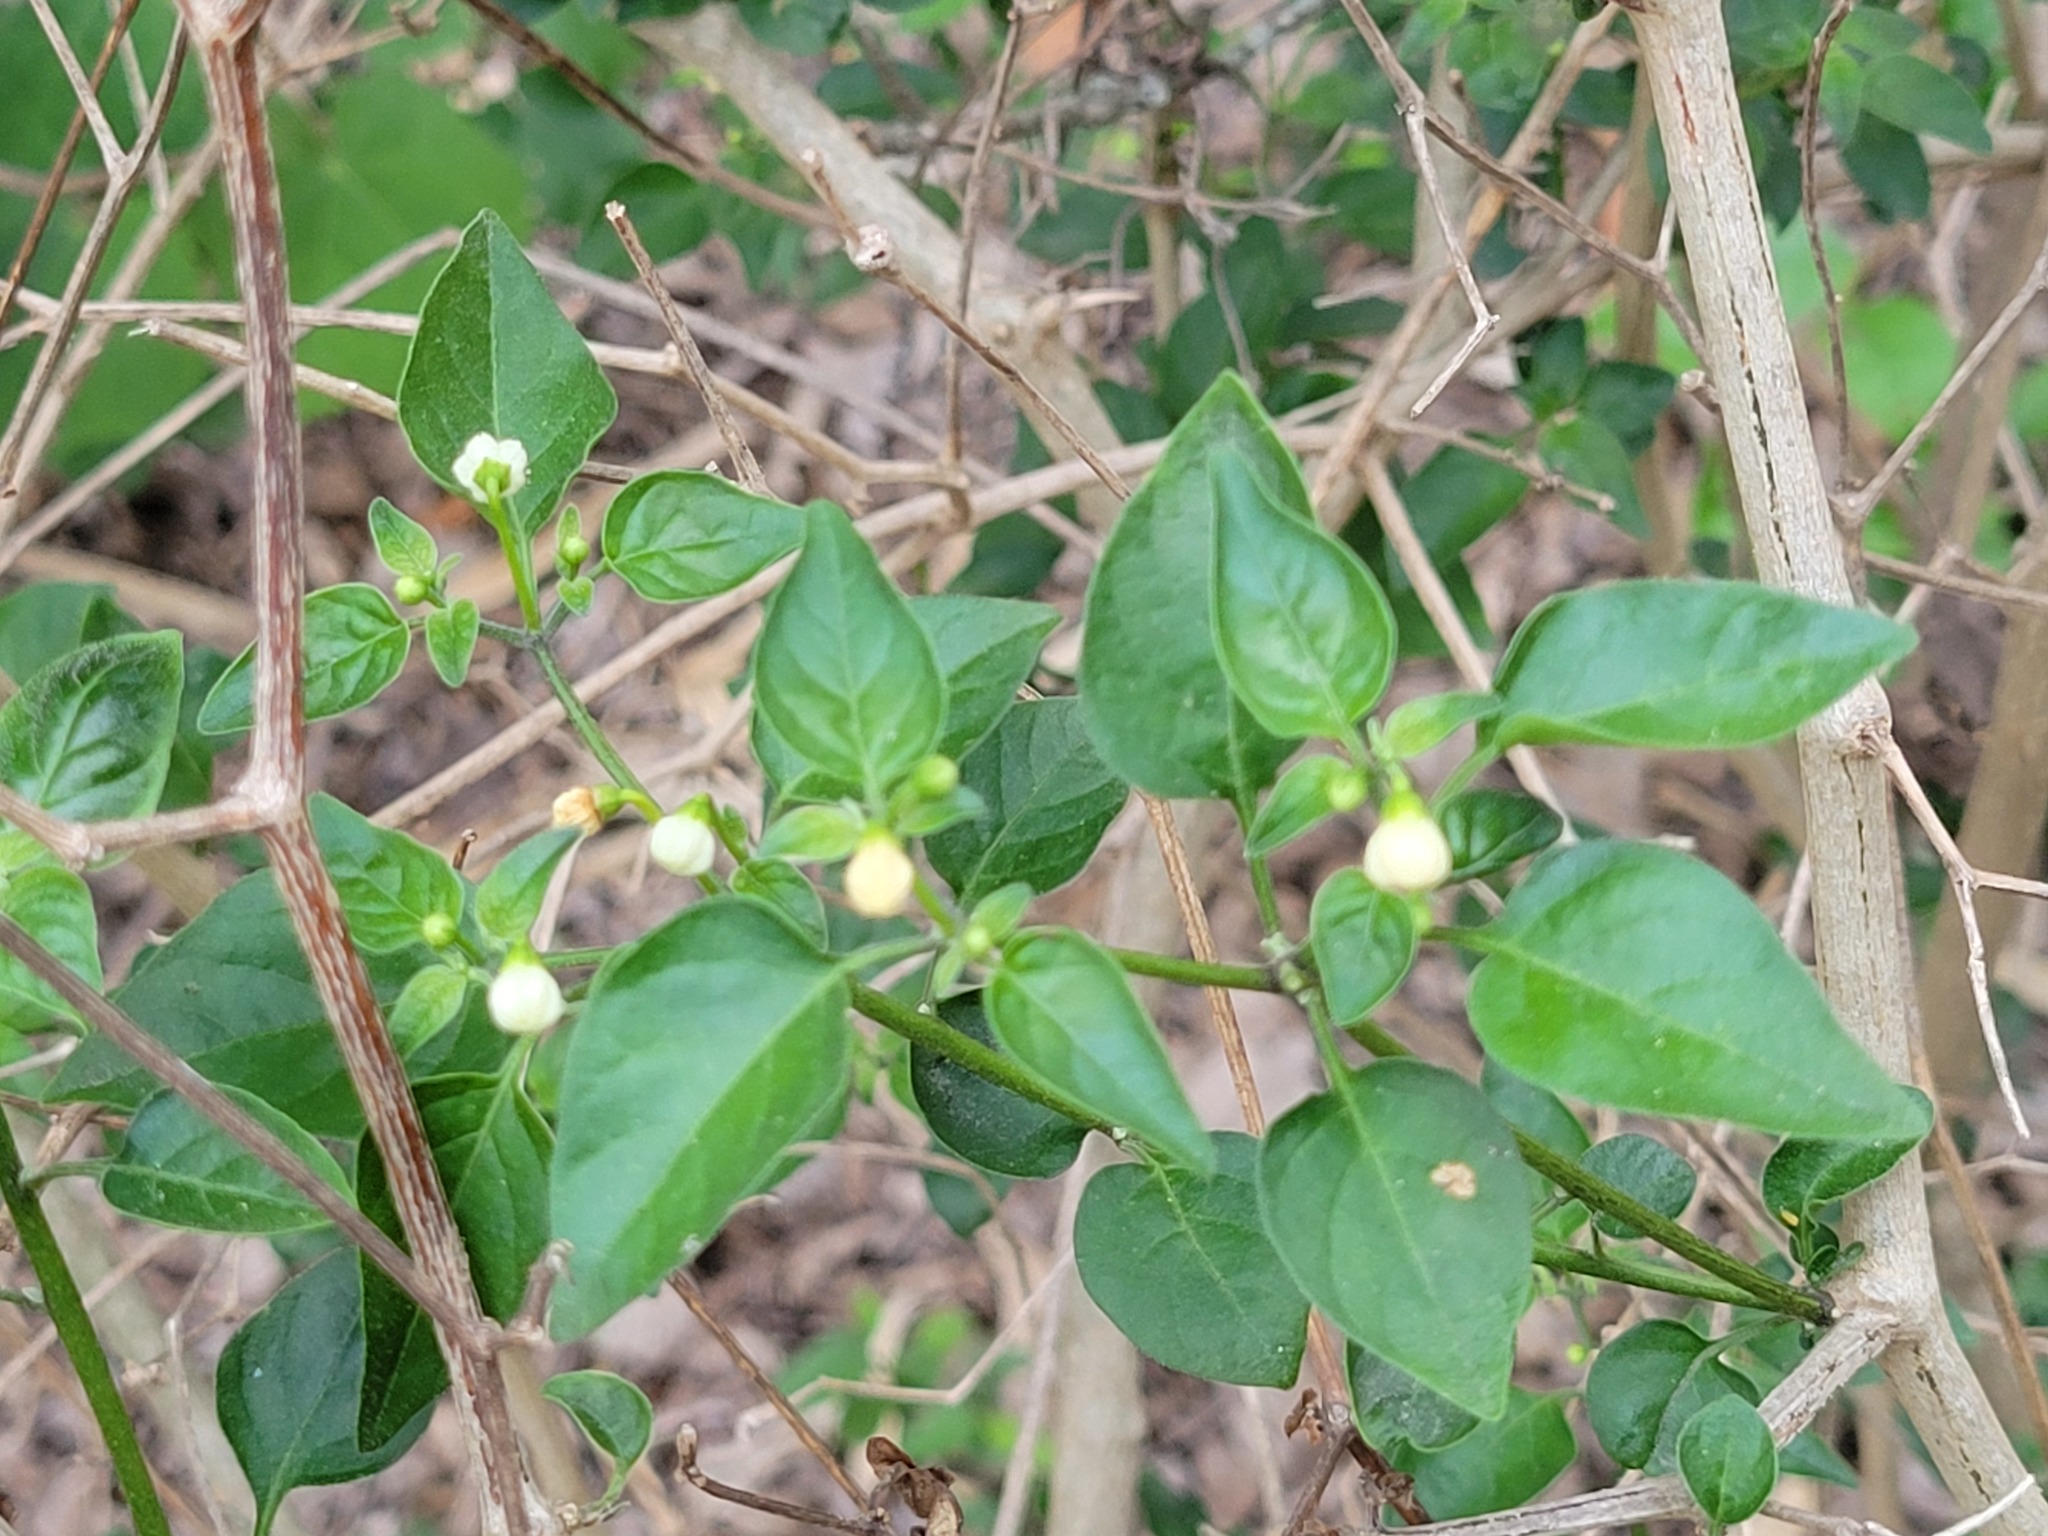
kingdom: Plantae
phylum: Tracheophyta
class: Magnoliopsida
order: Solanales
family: Solanaceae
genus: Capsicum
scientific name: Capsicum annuum
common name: Sweet pepper
